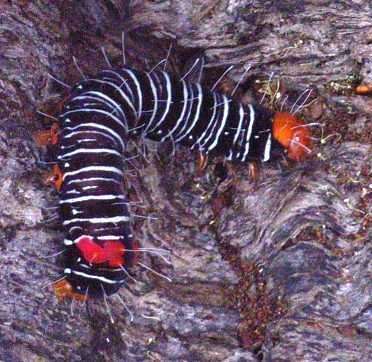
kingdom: Animalia
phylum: Arthropoda
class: Insecta
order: Lepidoptera
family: Noctuidae
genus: Comocrus
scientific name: Comocrus behri
